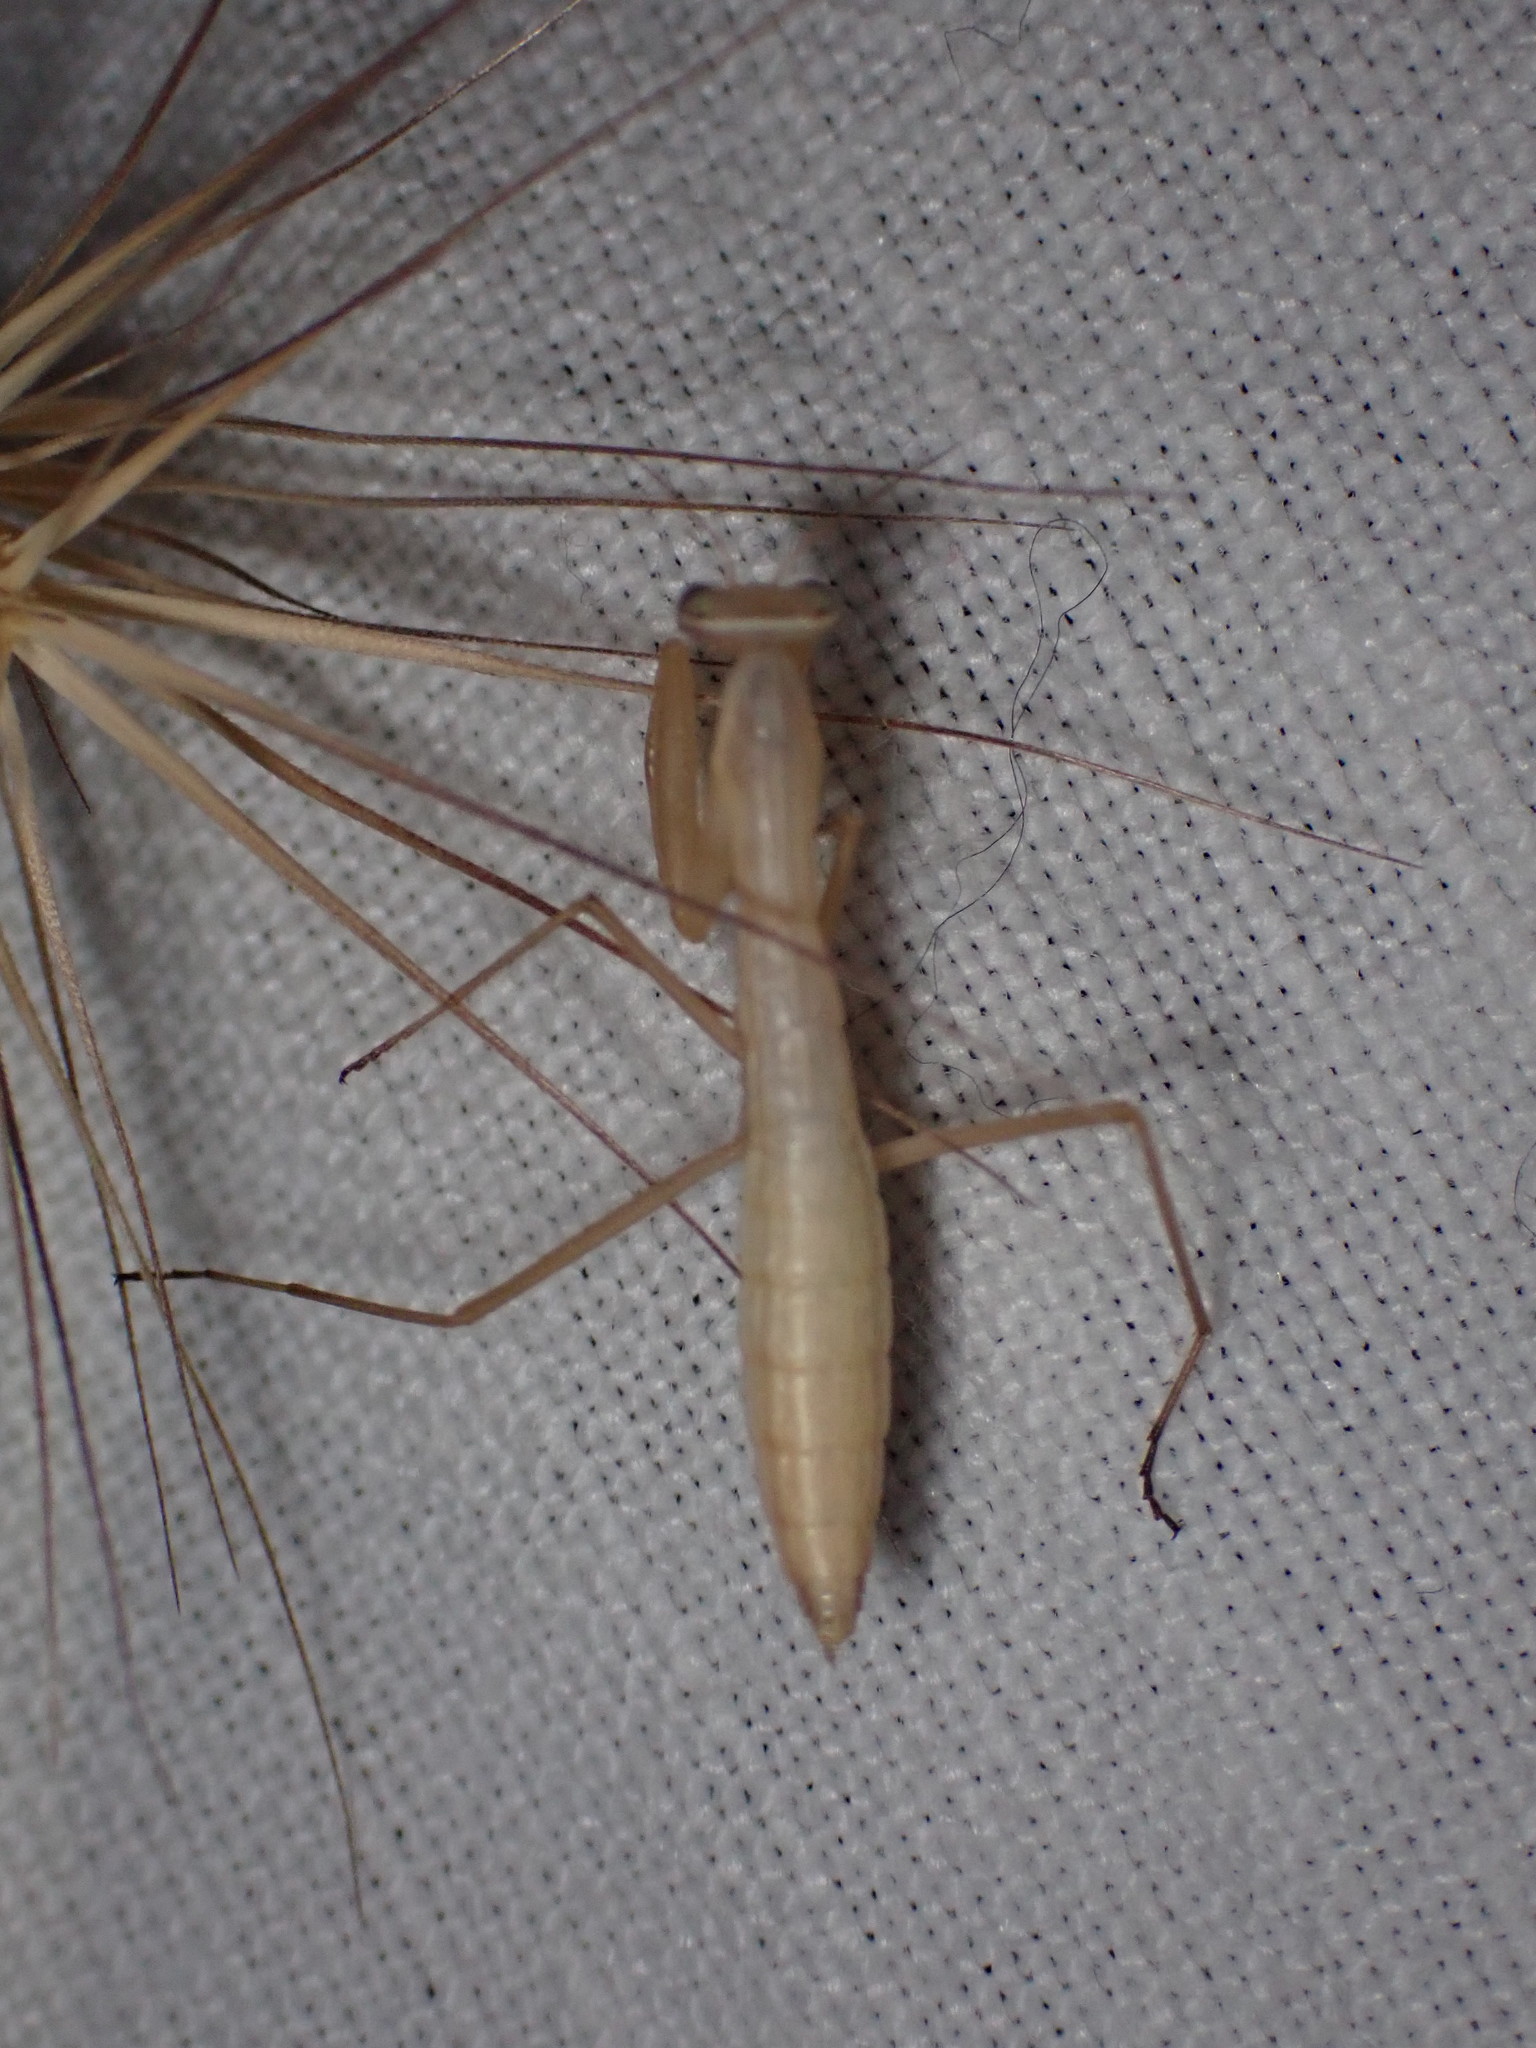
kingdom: Animalia
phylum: Arthropoda
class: Insecta
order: Mantodea
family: Mantidae
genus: Mantis
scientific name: Mantis religiosa
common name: Praying mantis
